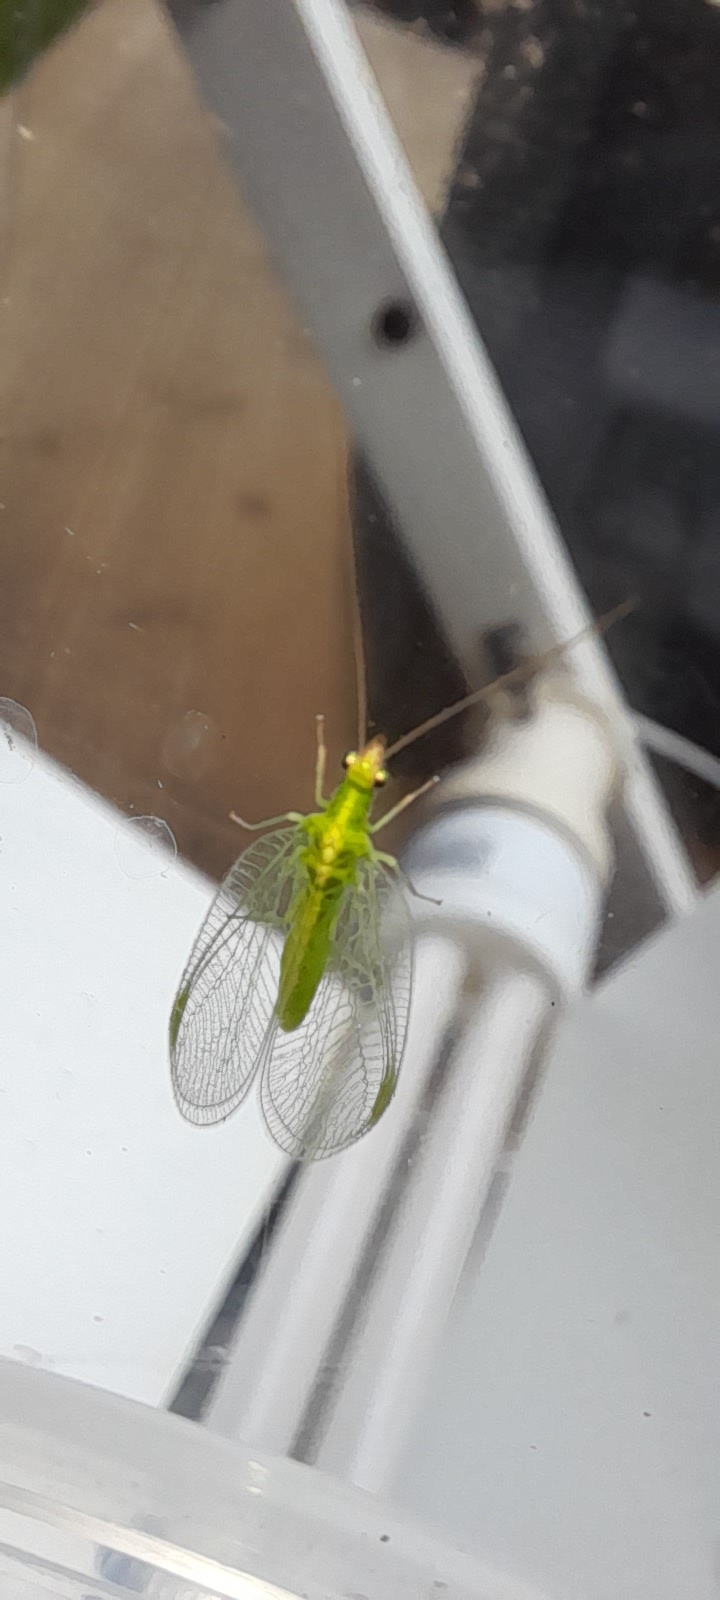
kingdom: Animalia
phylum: Arthropoda
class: Insecta
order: Neuroptera
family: Chrysopidae
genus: Chrysoperla
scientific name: Chrysoperla
